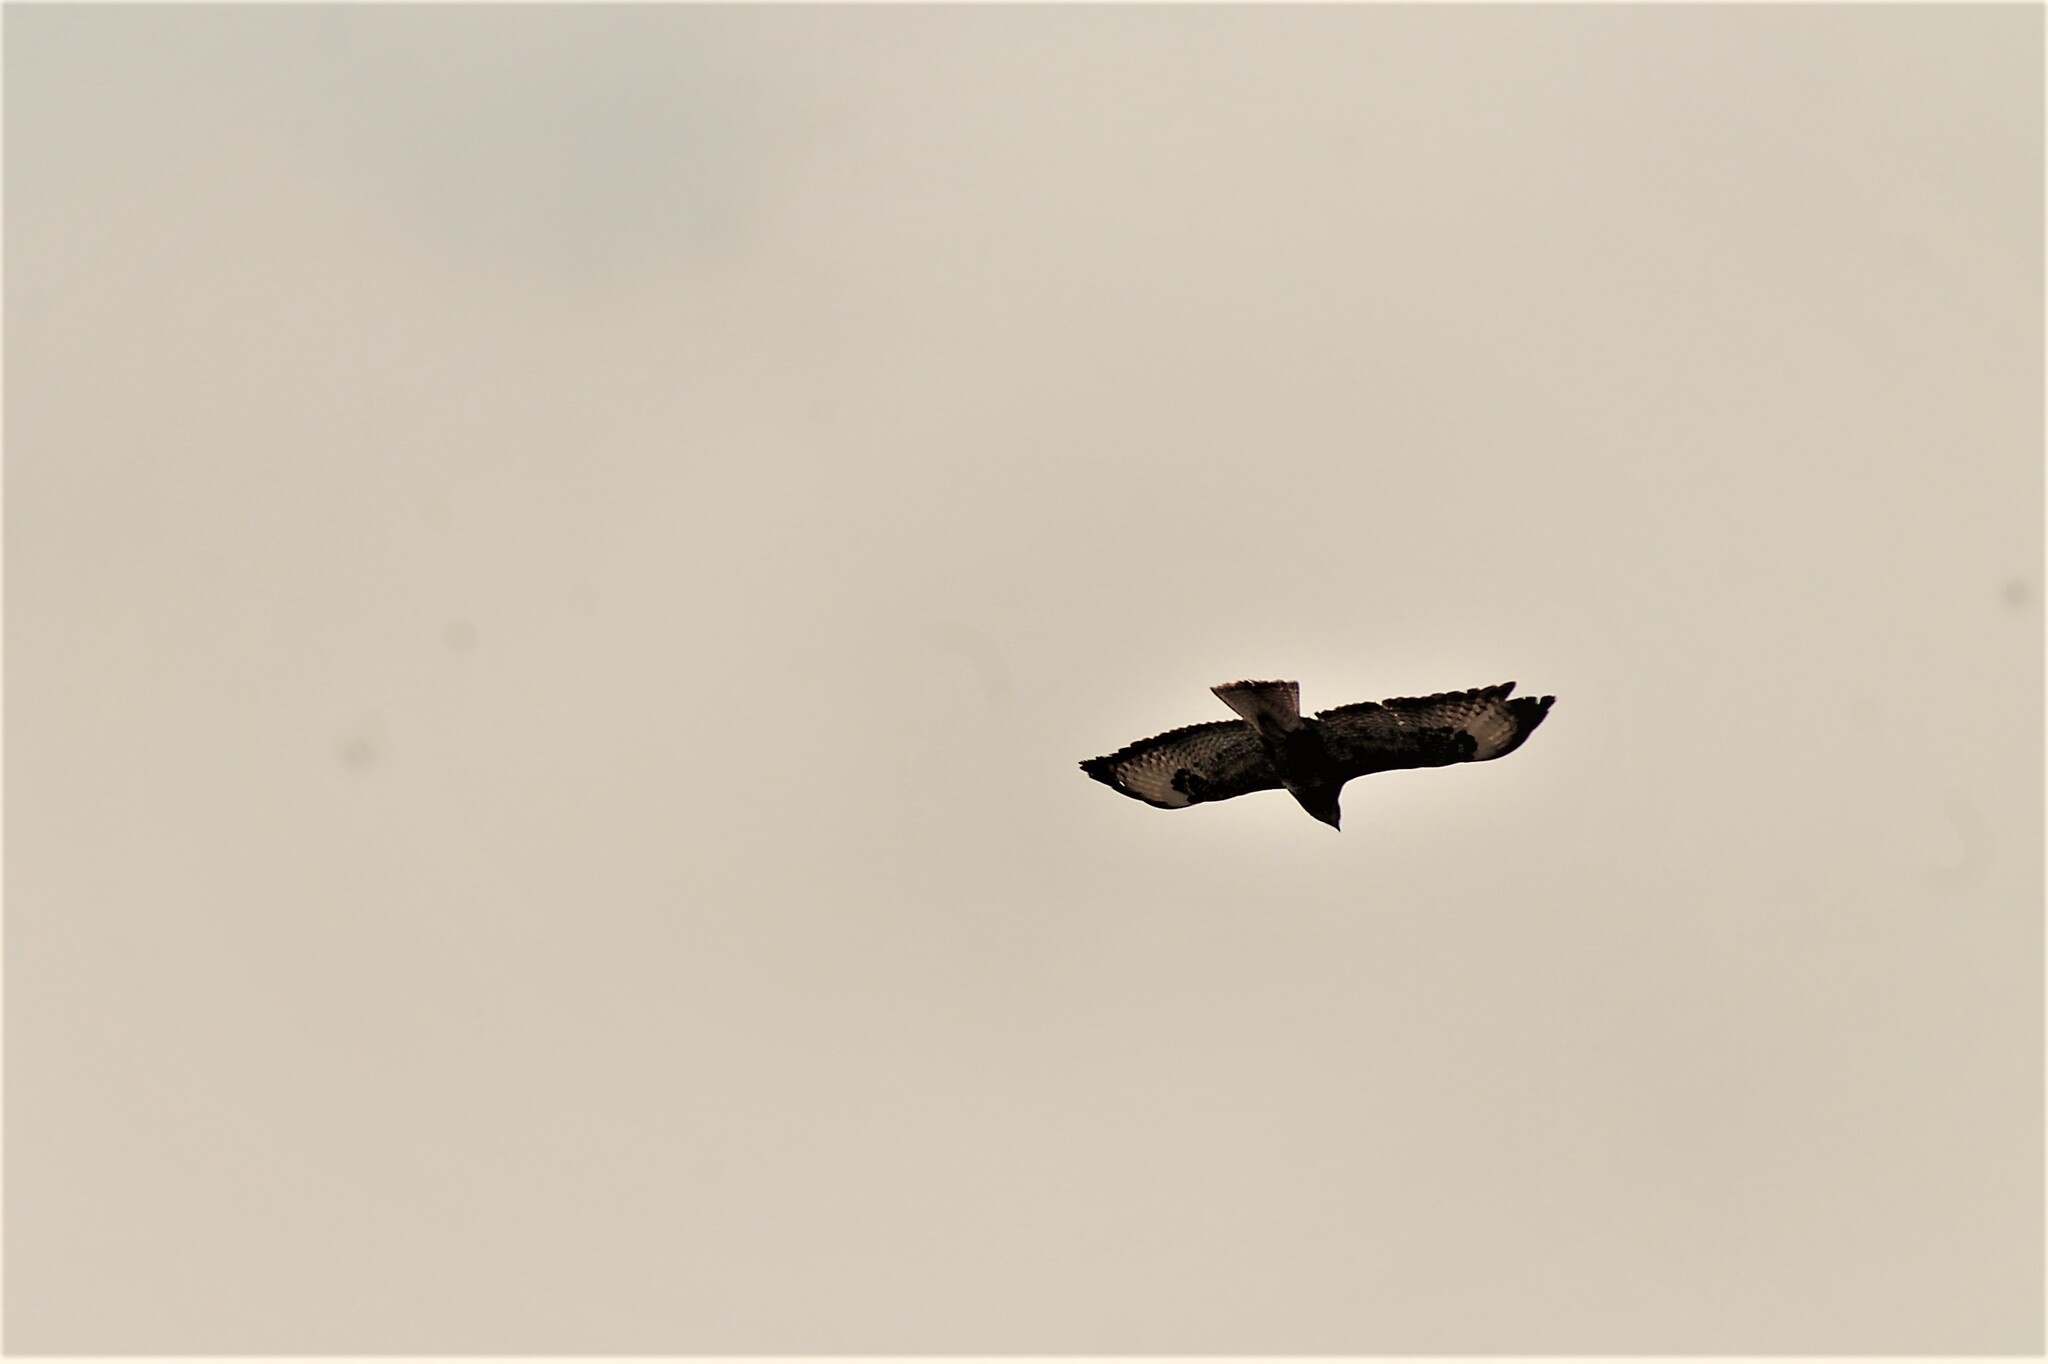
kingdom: Animalia
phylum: Chordata
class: Aves
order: Accipitriformes
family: Accipitridae
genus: Buteo
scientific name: Buteo buteo
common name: Common buzzard
